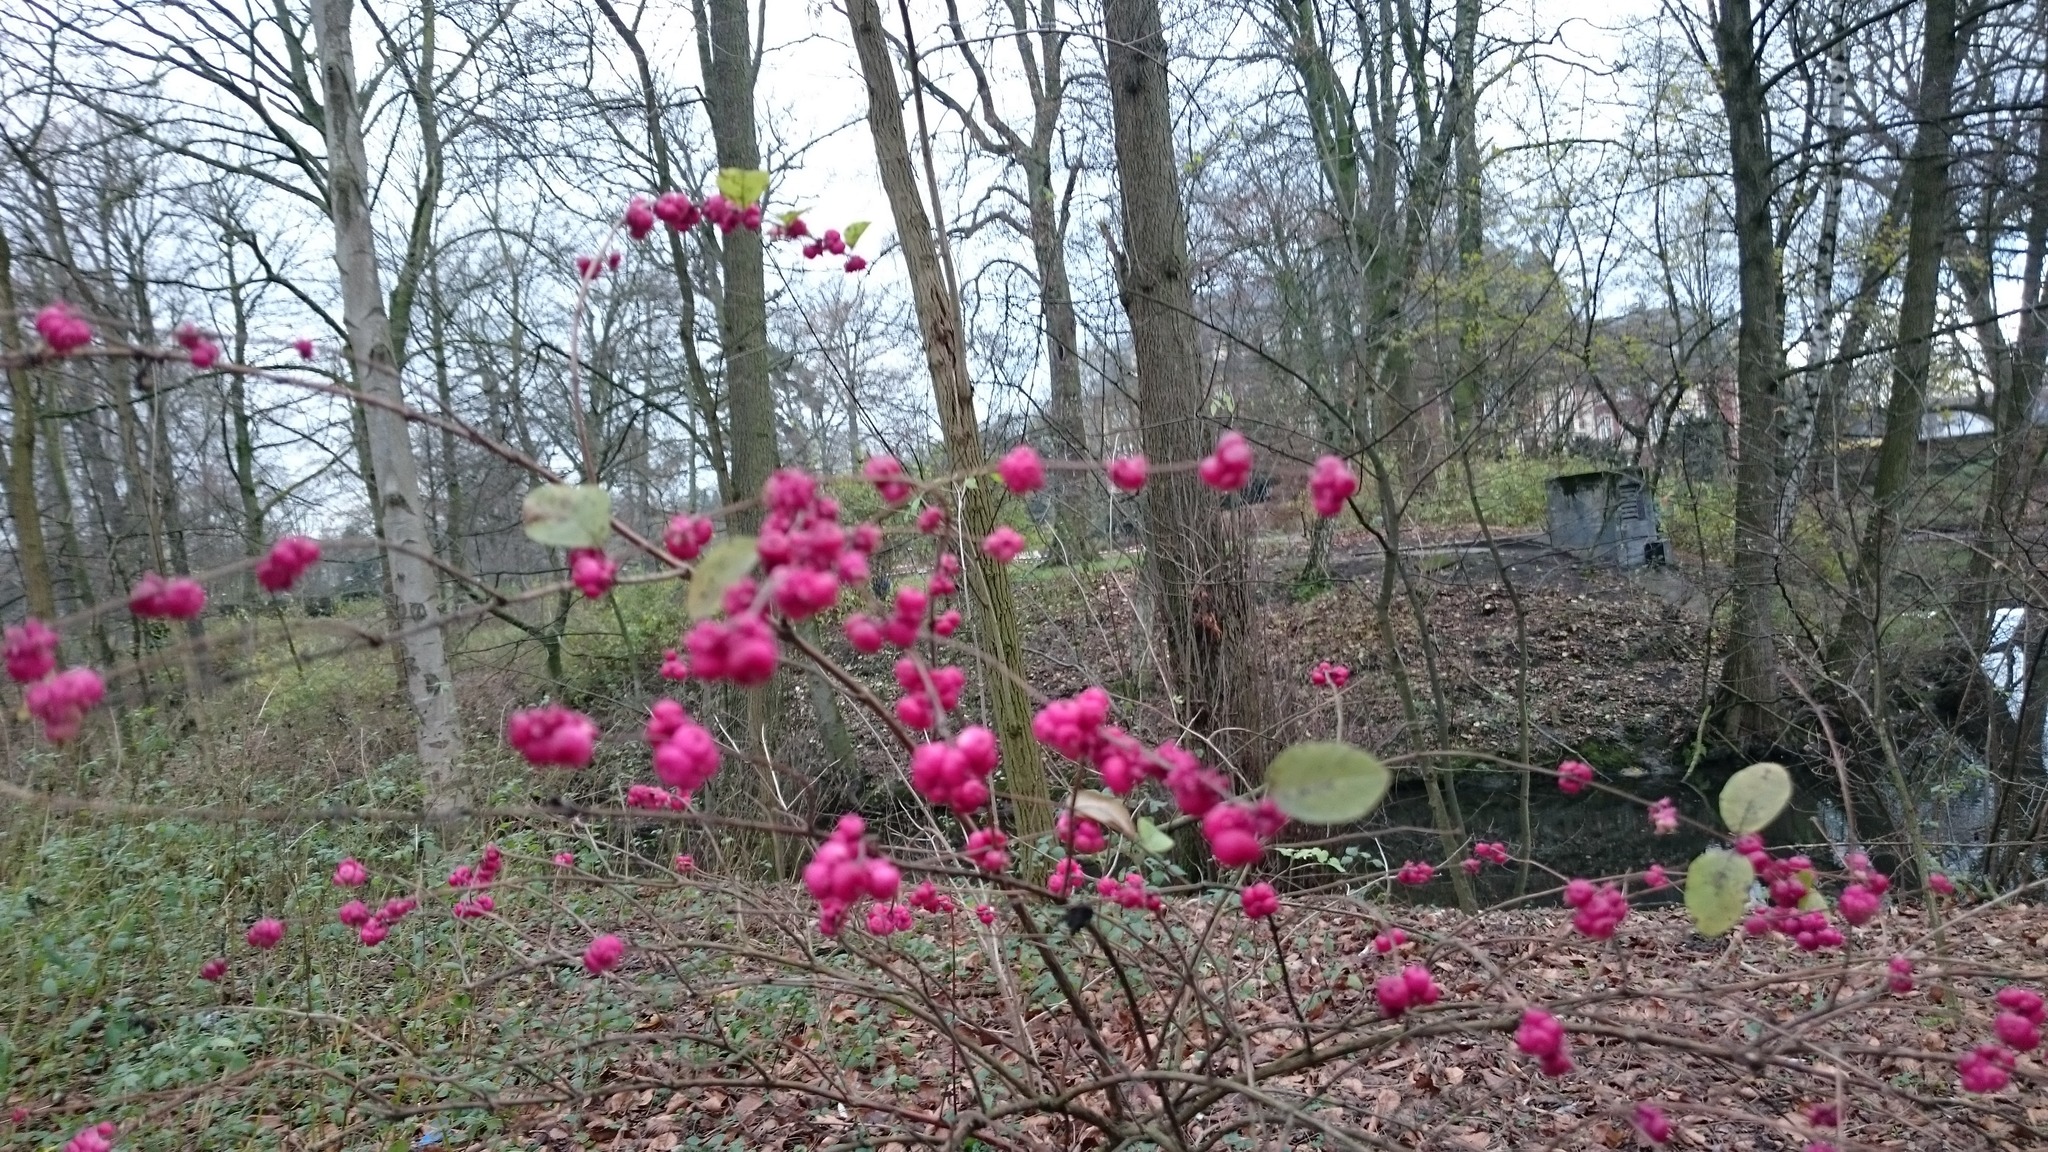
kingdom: Plantae
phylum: Tracheophyta
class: Magnoliopsida
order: Celastrales
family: Celastraceae
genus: Euonymus
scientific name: Euonymus europaeus
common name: Spindle
